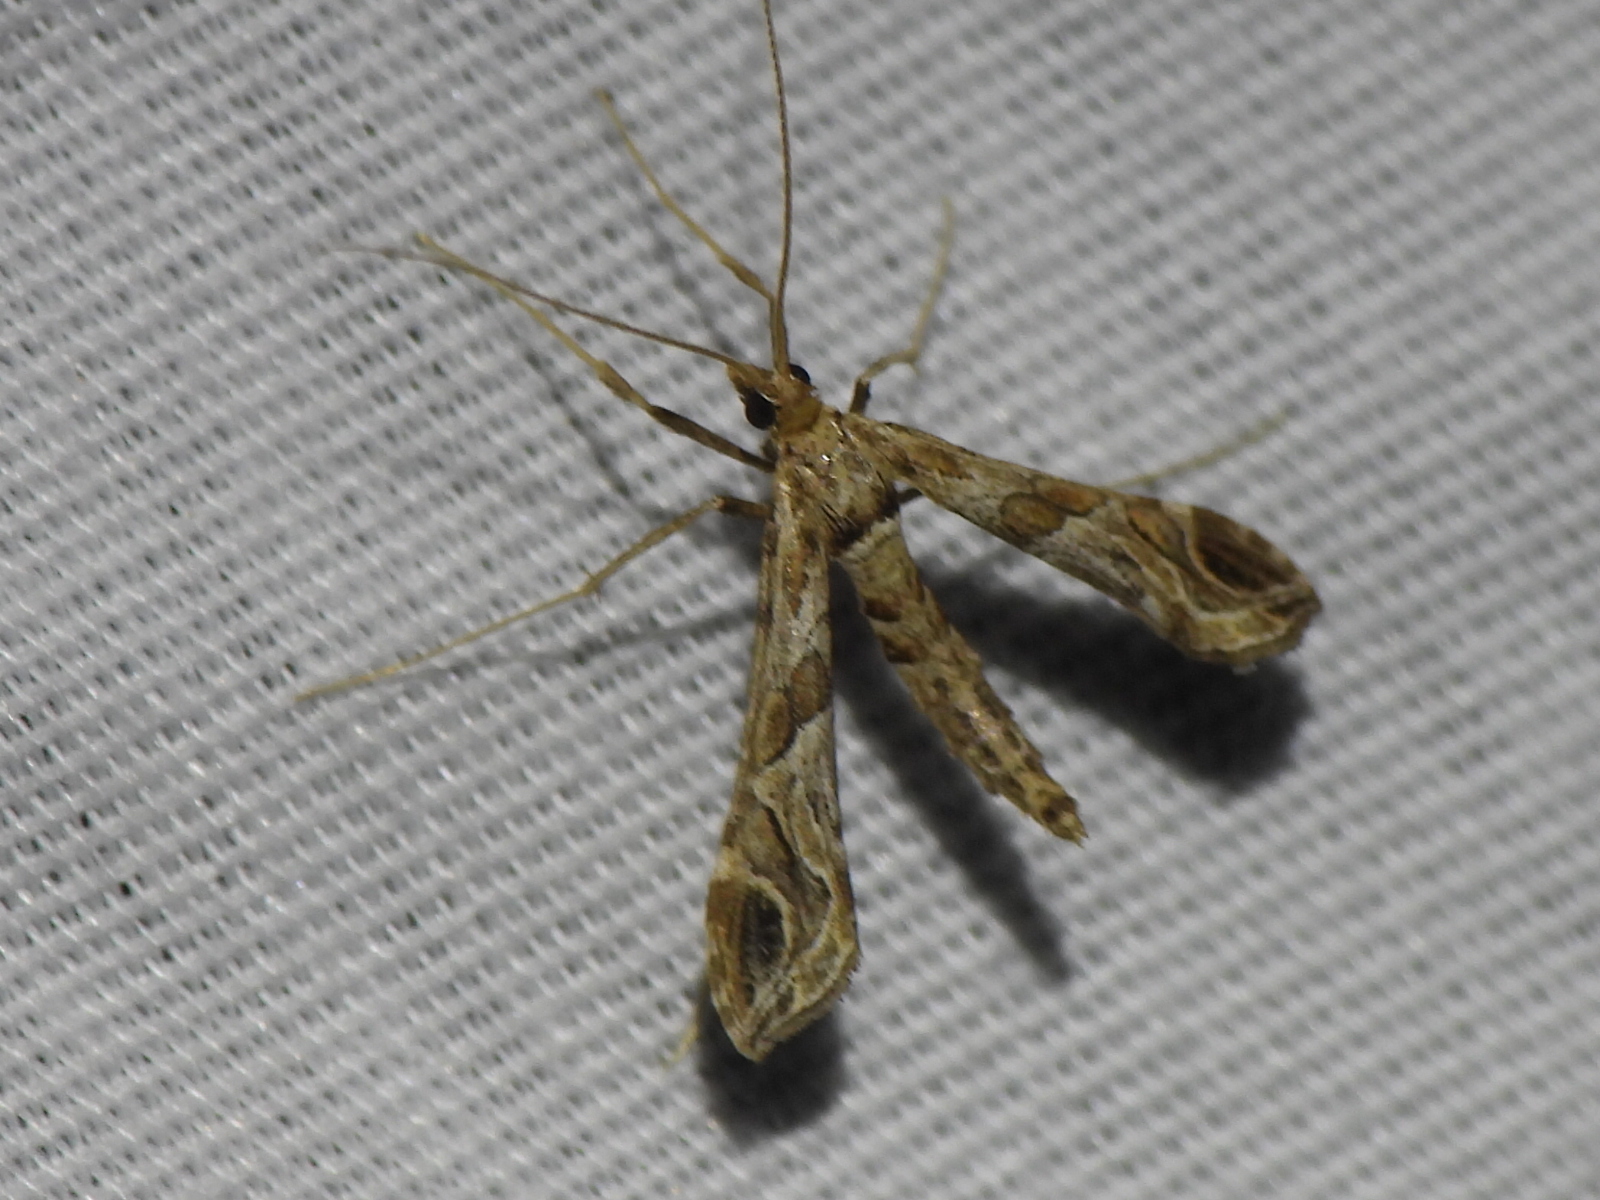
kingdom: Animalia
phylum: Arthropoda
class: Insecta
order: Lepidoptera
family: Crambidae
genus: Lineodes
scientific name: Lineodes interrupta
